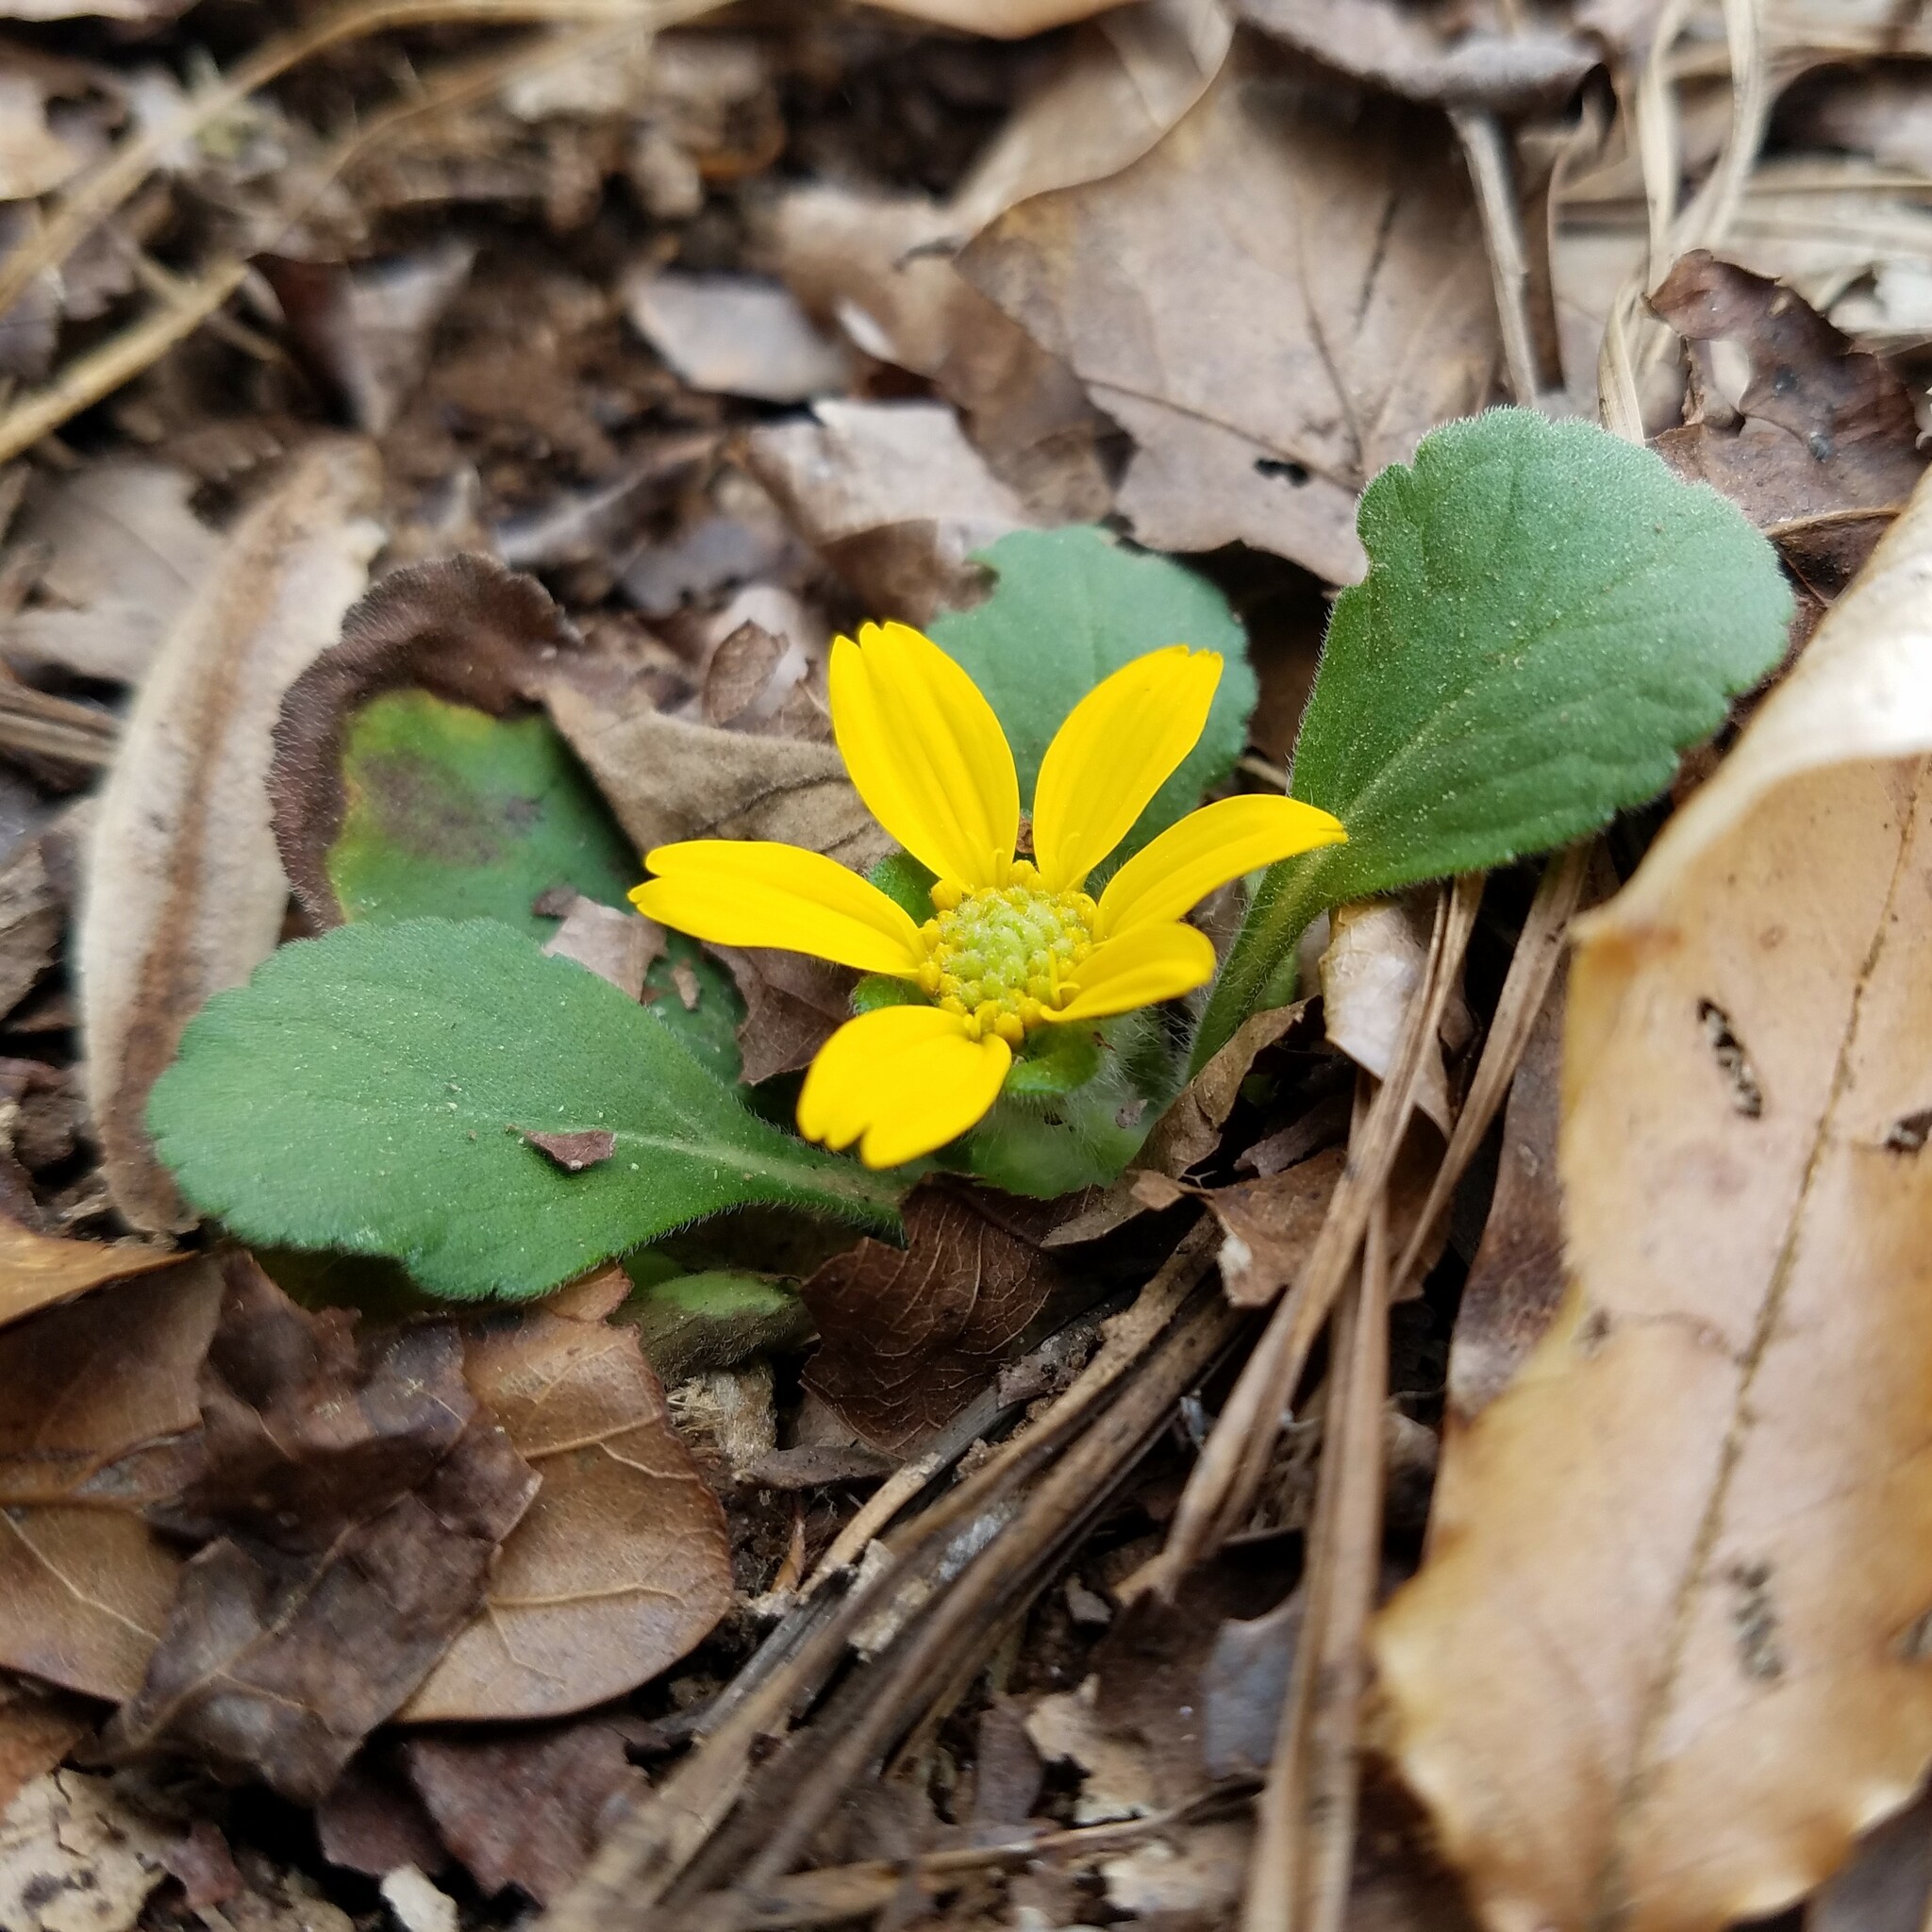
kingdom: Plantae
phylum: Tracheophyta
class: Magnoliopsida
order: Asterales
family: Asteraceae
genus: Chrysogonum
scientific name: Chrysogonum virginianum
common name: Golden-knee
